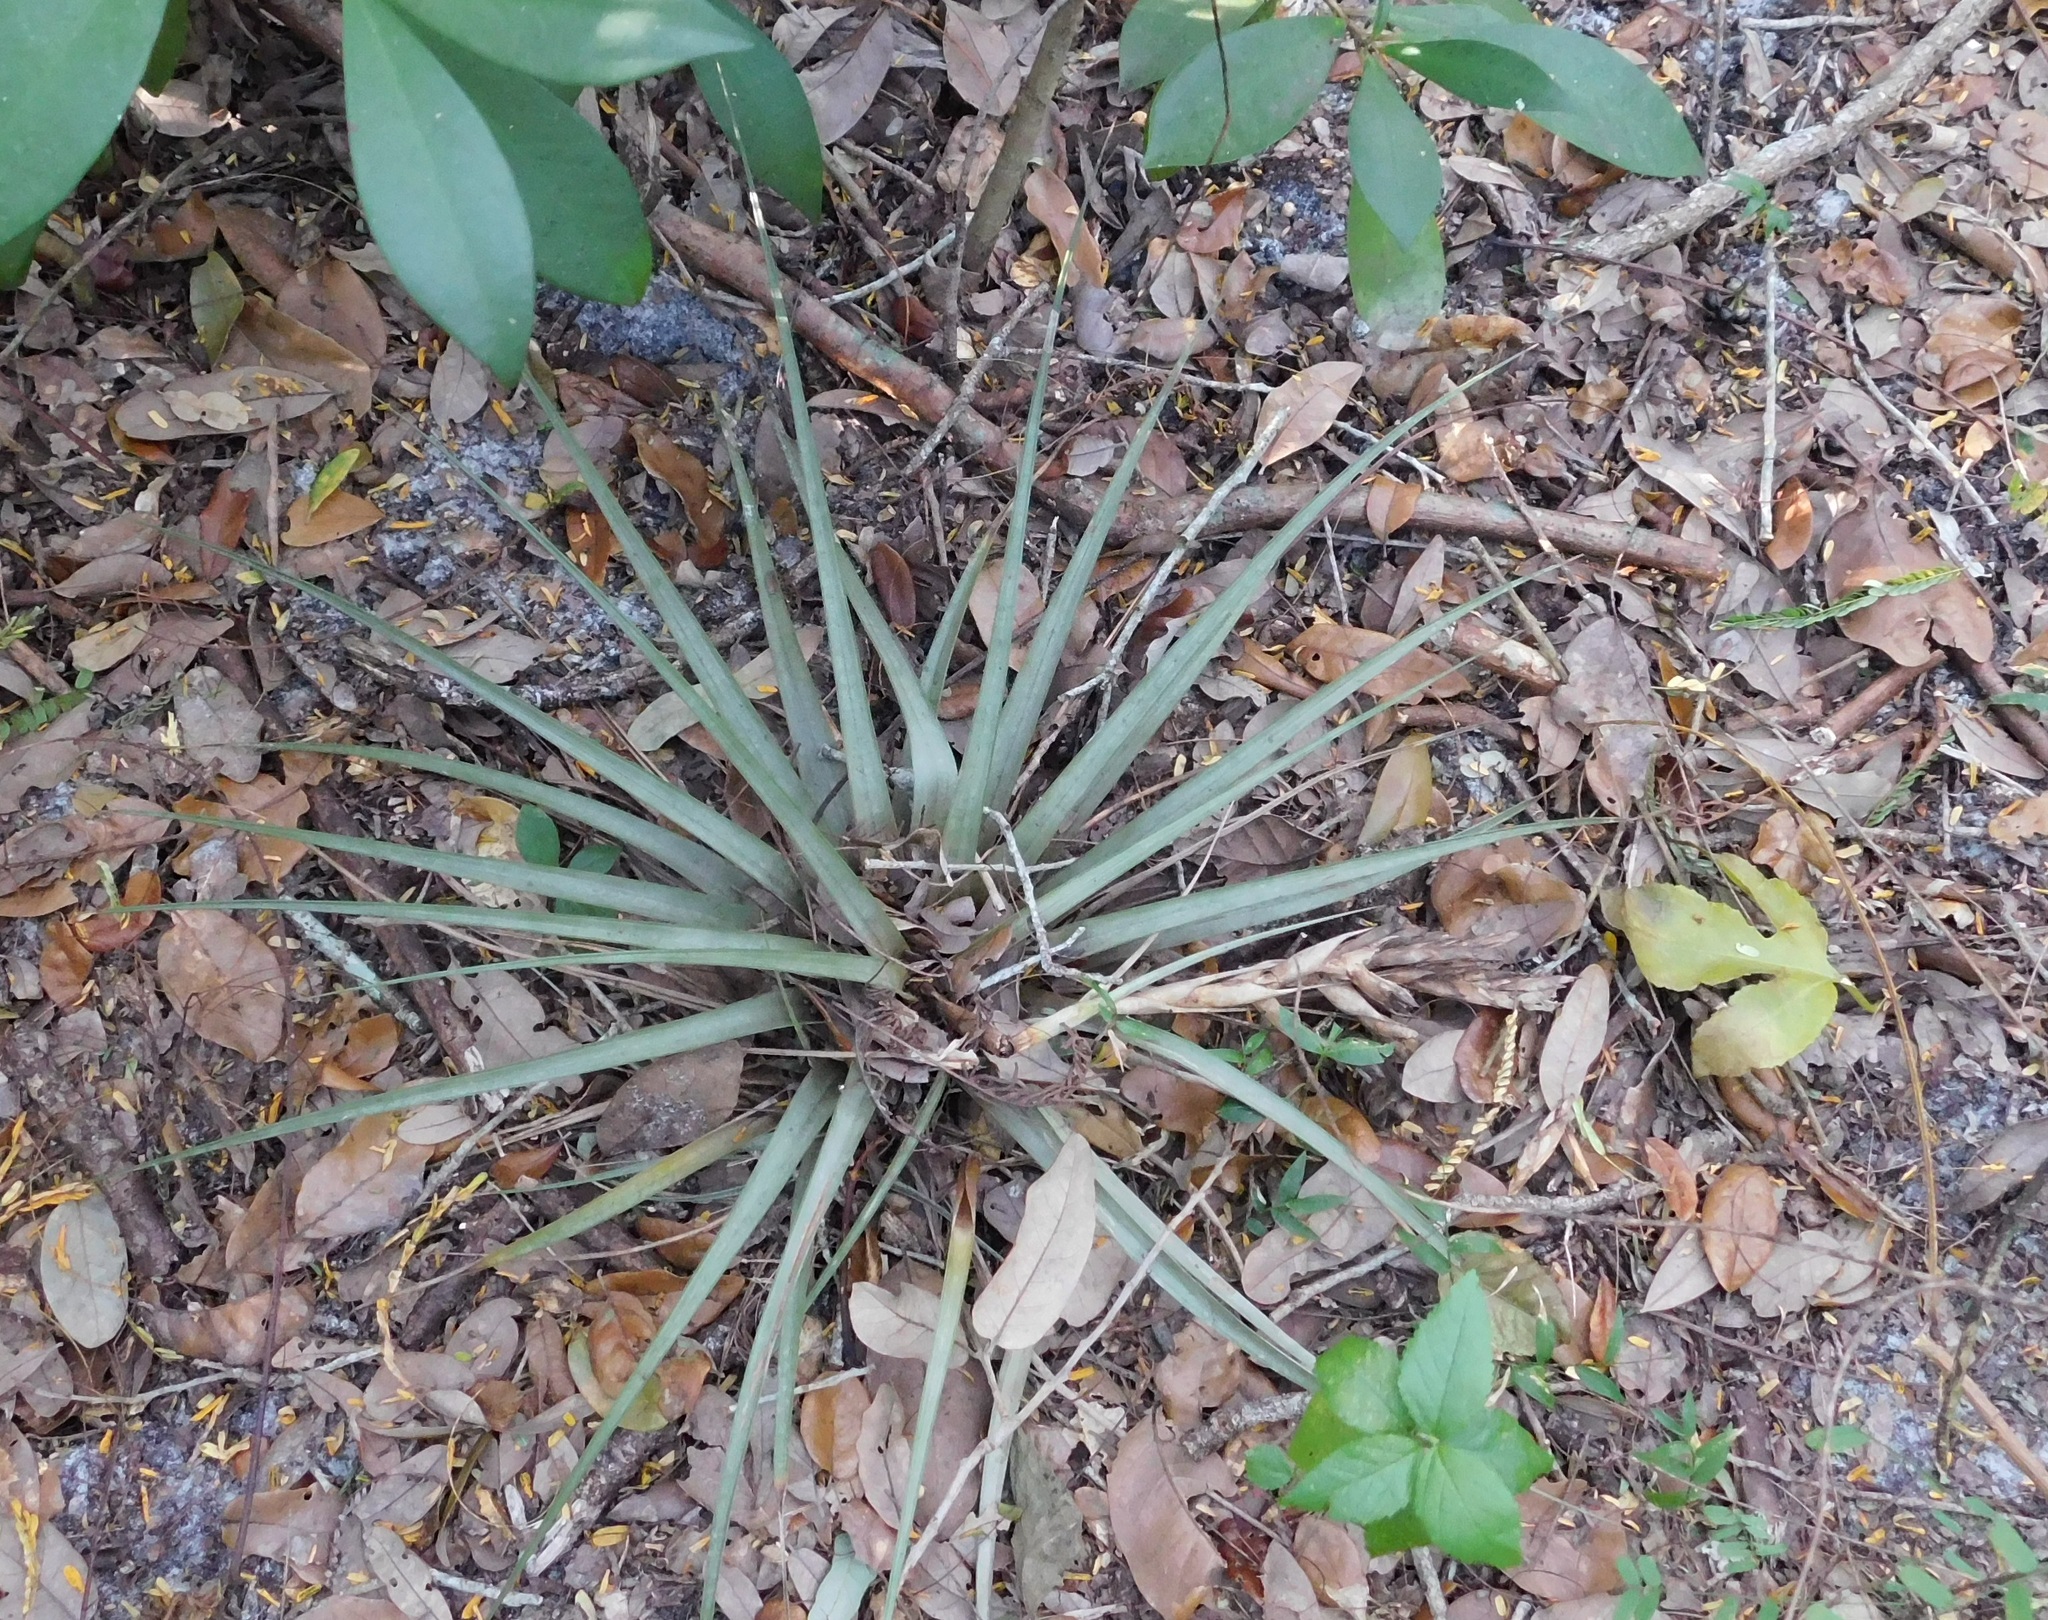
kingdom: Plantae
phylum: Tracheophyta
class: Liliopsida
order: Poales
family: Bromeliaceae
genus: Tillandsia
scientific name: Tillandsia fasciculata
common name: Giant airplant
